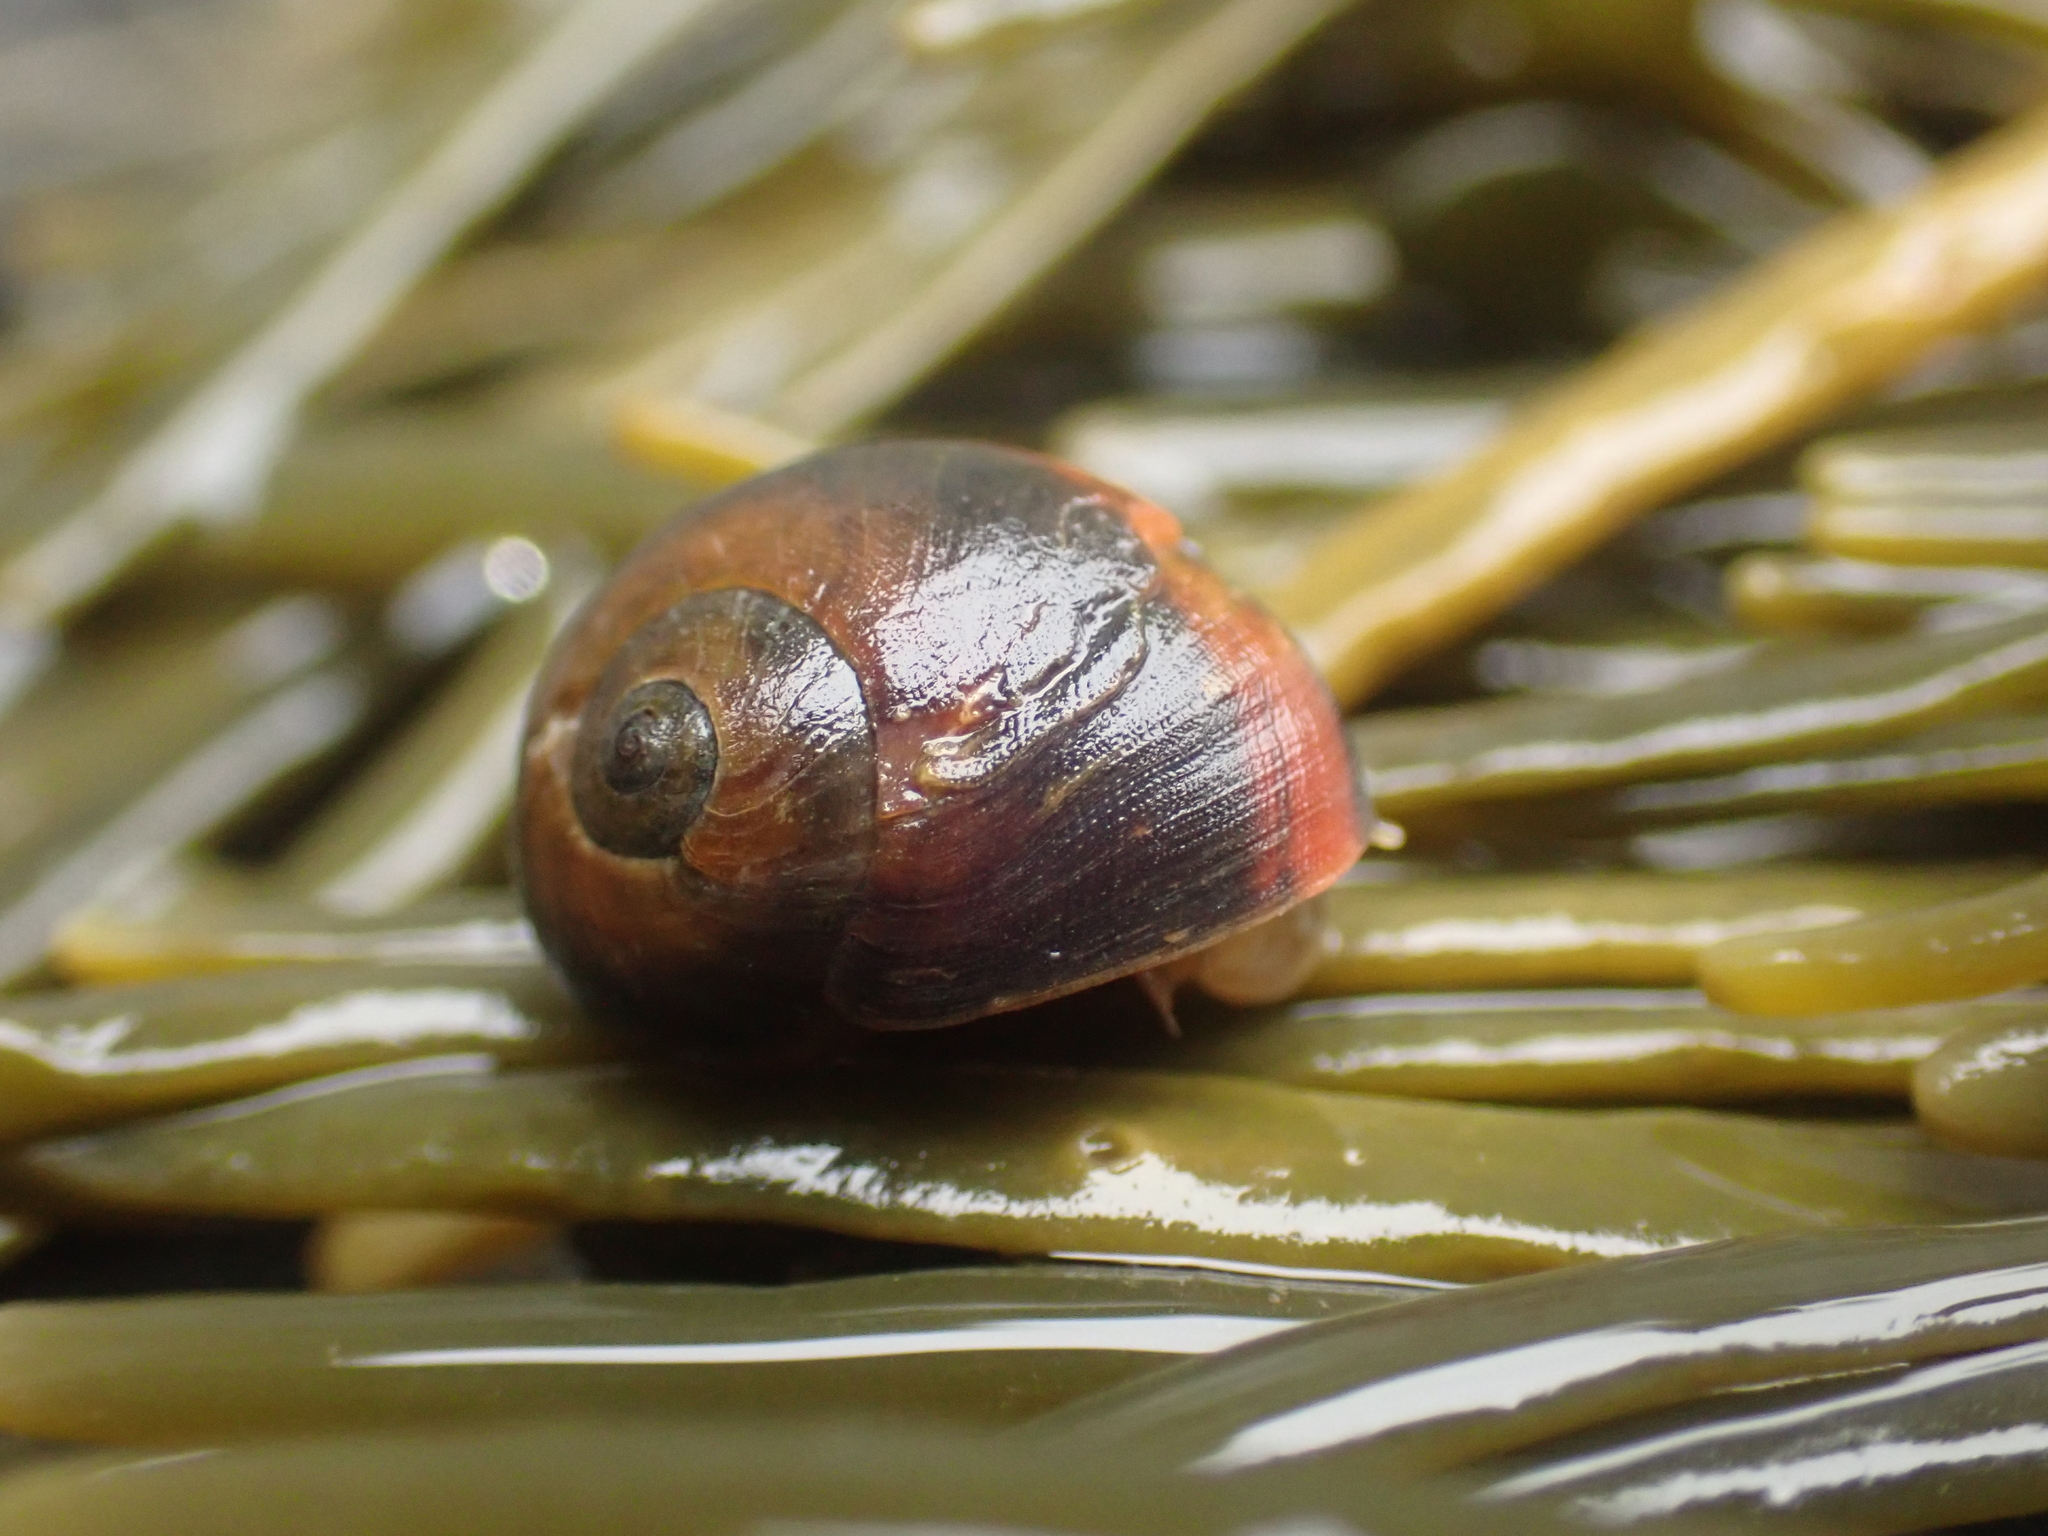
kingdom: Animalia
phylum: Mollusca
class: Gastropoda
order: Littorinimorpha
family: Littorinidae
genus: Littorina
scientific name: Littorina obtusata
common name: Flat periwinkle
